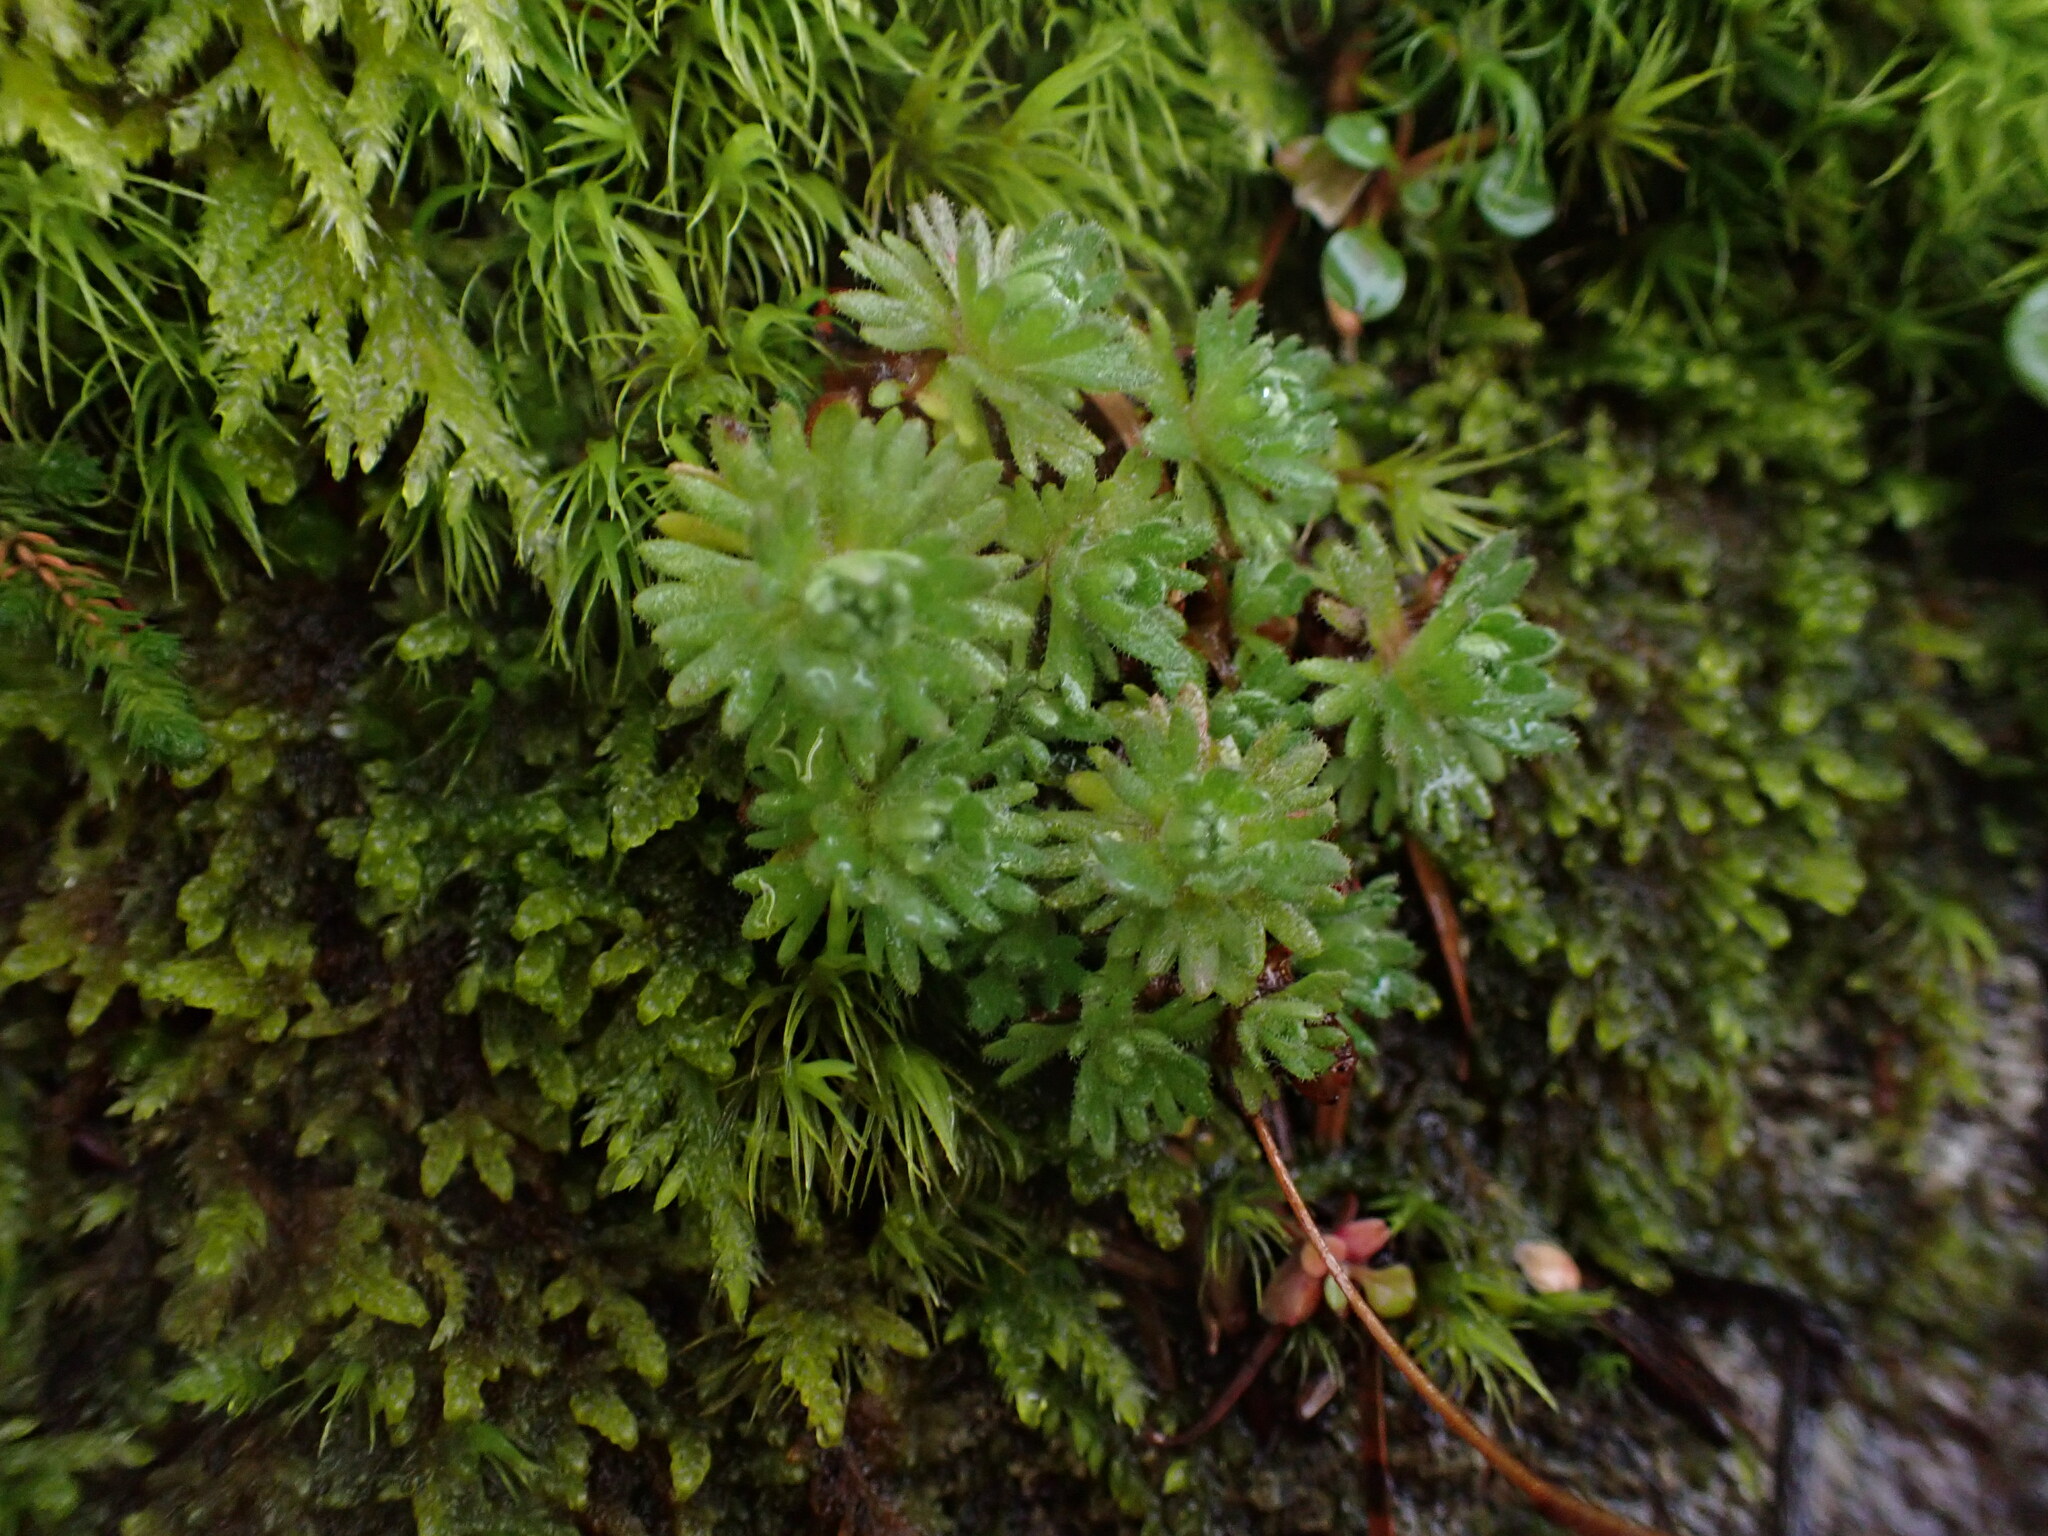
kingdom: Plantae
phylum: Tracheophyta
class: Magnoliopsida
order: Saxifragales
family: Saxifragaceae
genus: Saxifraga
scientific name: Saxifraga cespitosa
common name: Tufted saxifrage
